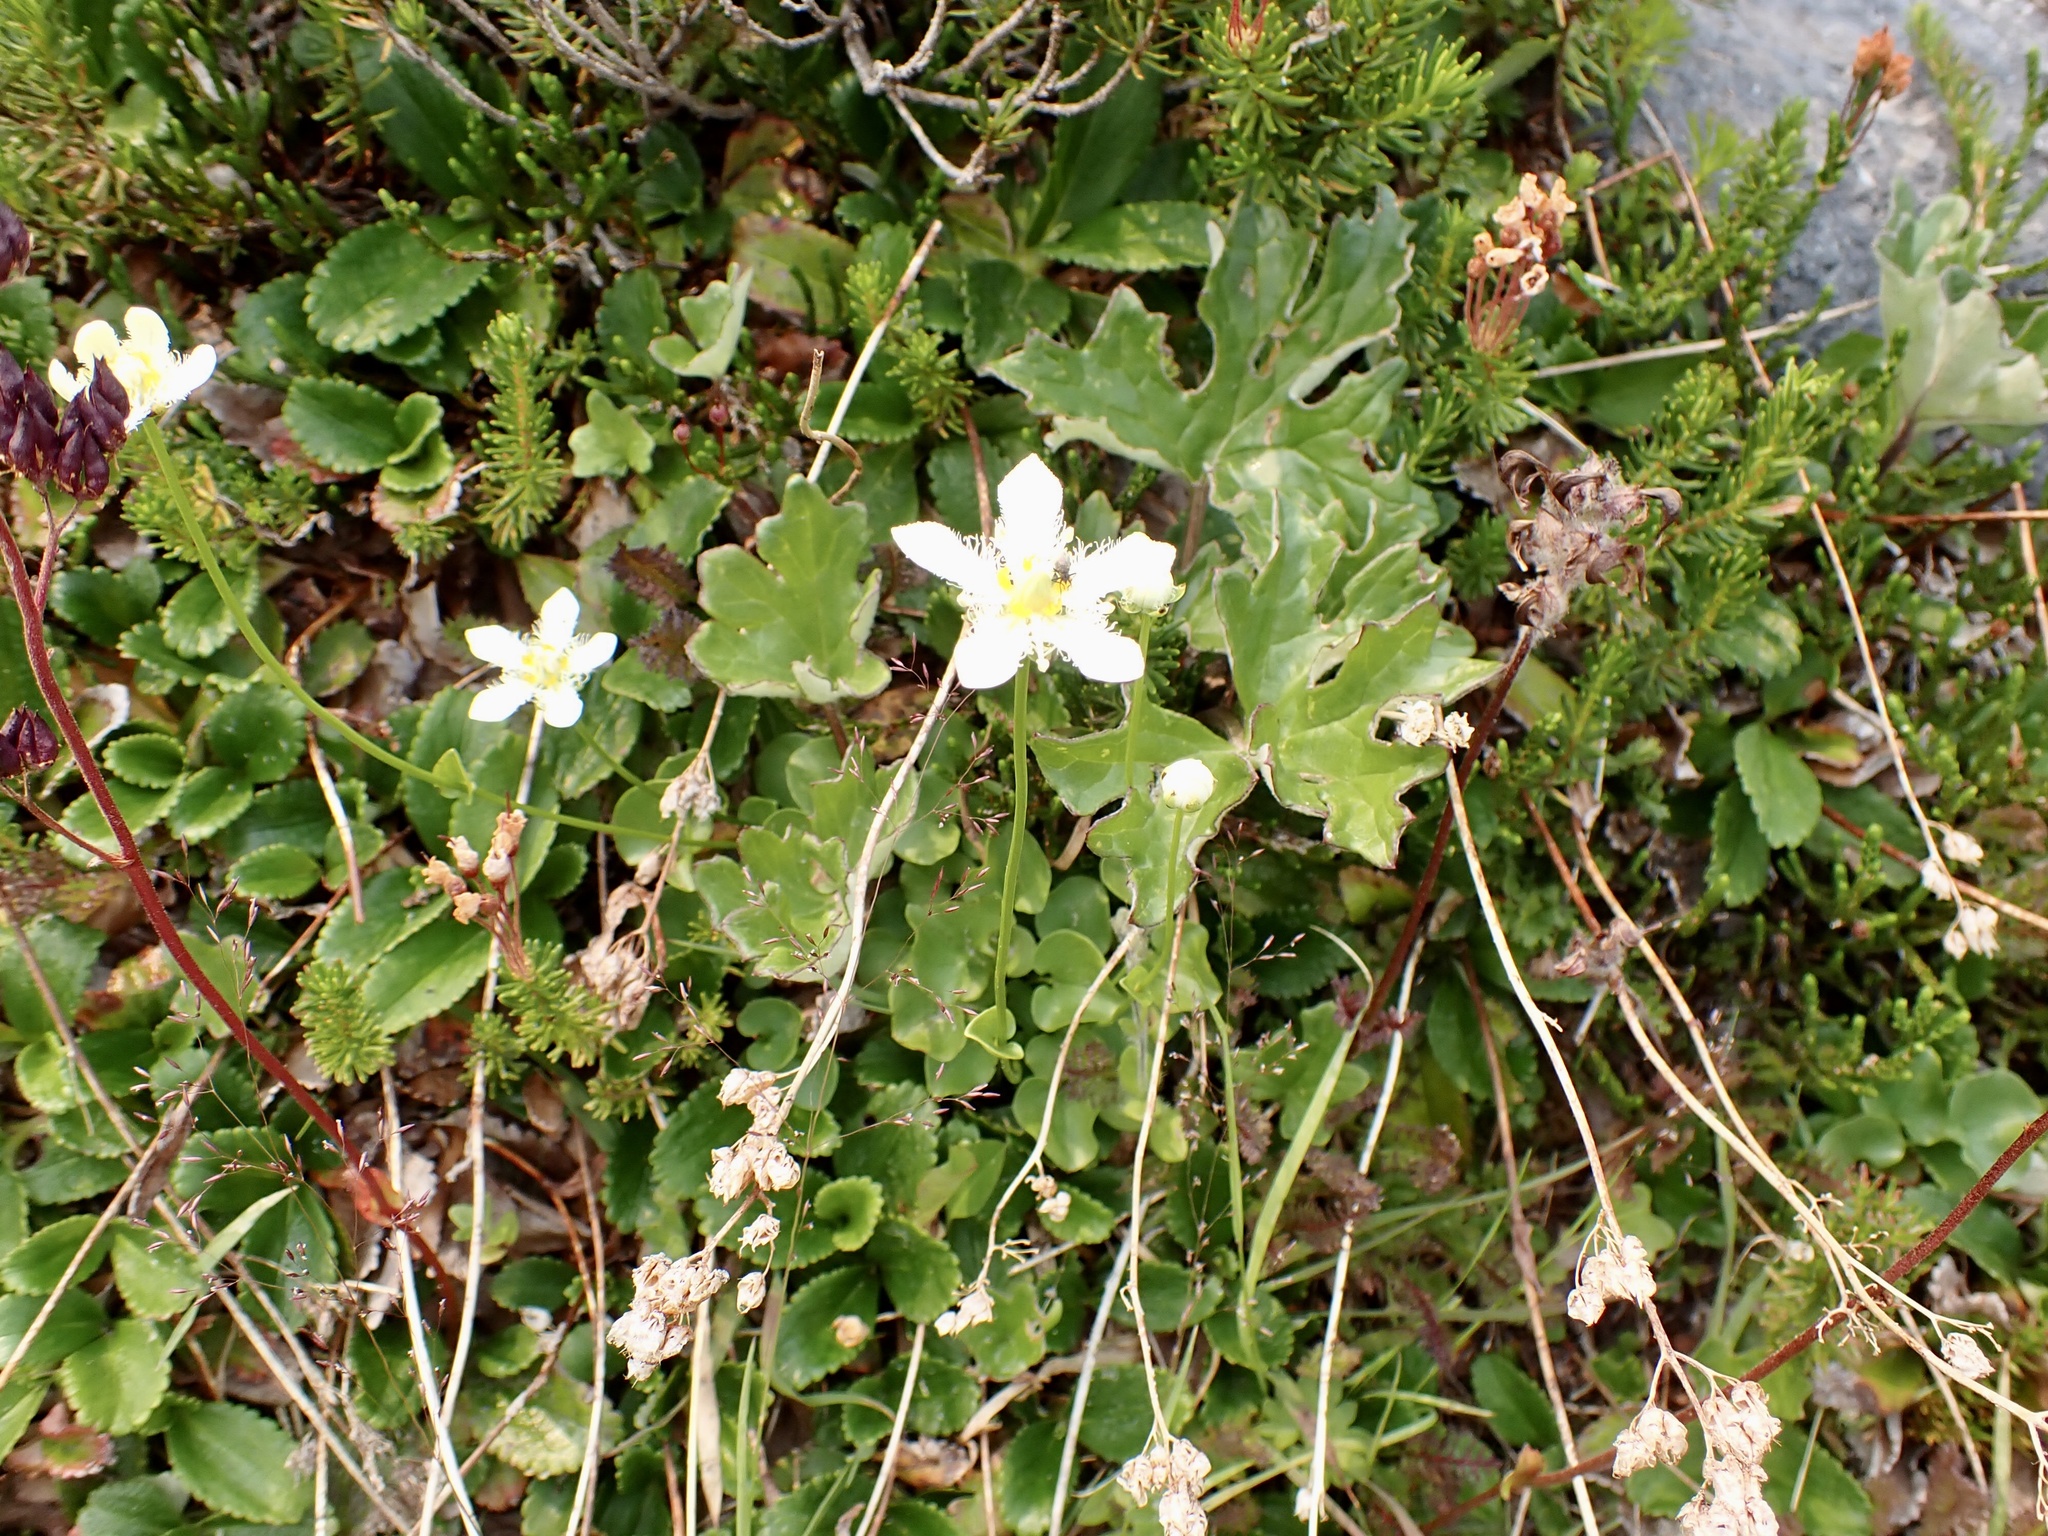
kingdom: Plantae
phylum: Tracheophyta
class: Magnoliopsida
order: Celastrales
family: Parnassiaceae
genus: Parnassia
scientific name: Parnassia fimbriata
